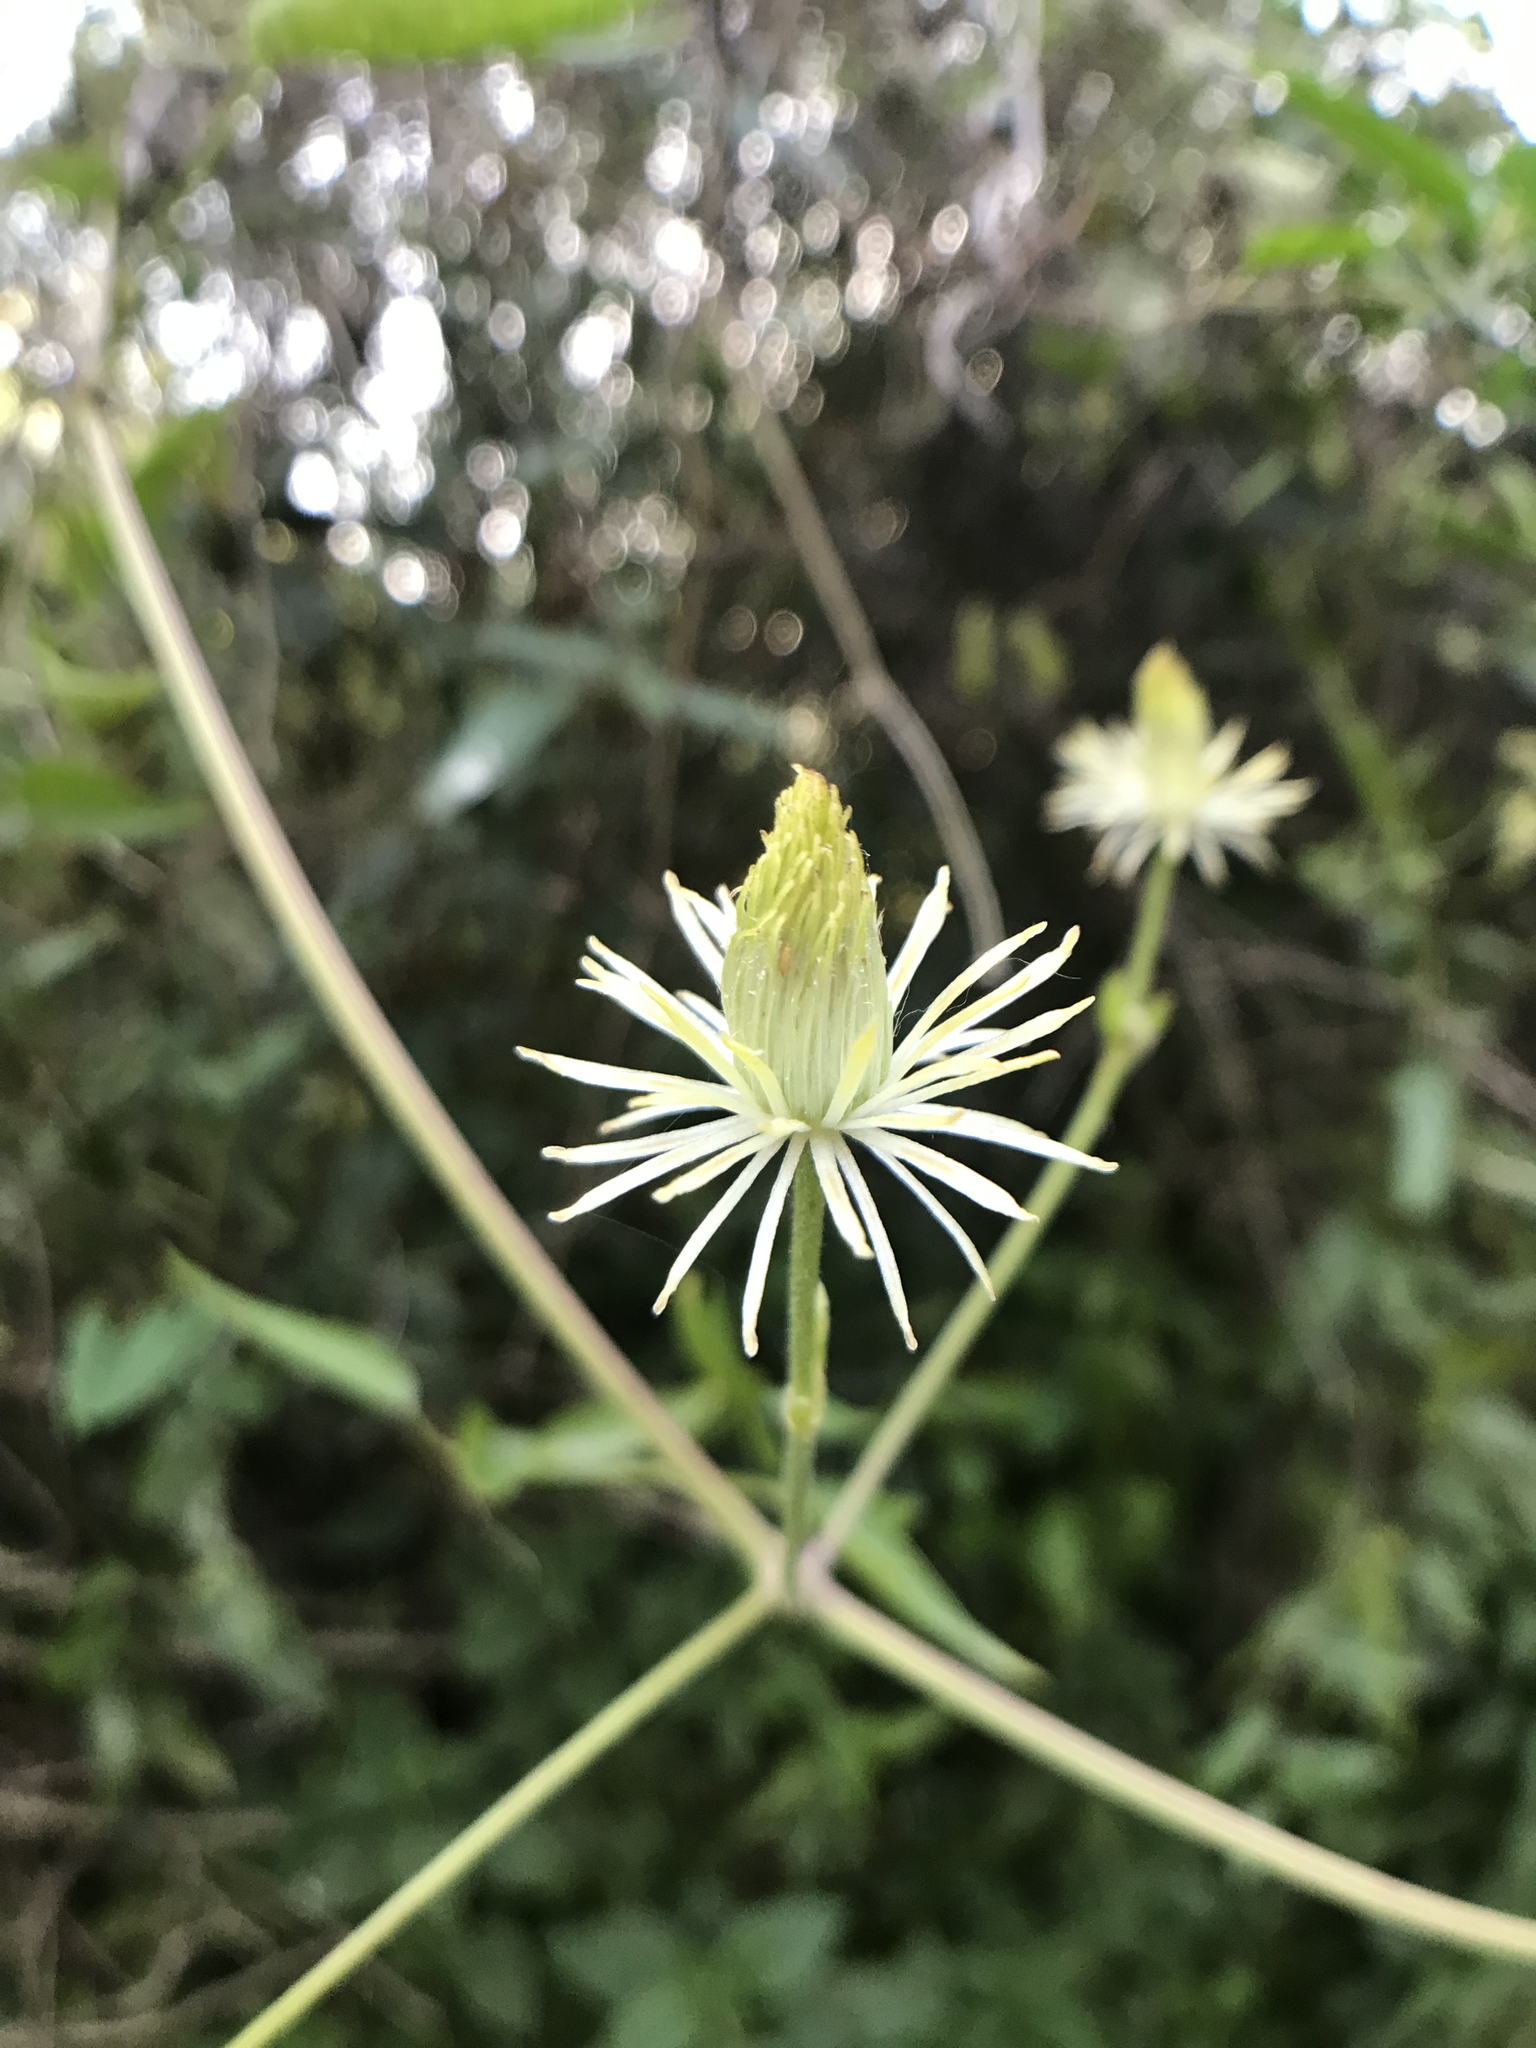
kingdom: Plantae
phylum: Tracheophyta
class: Magnoliopsida
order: Ranunculales
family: Ranunculaceae
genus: Clematis
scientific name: Clematis montevidensis
